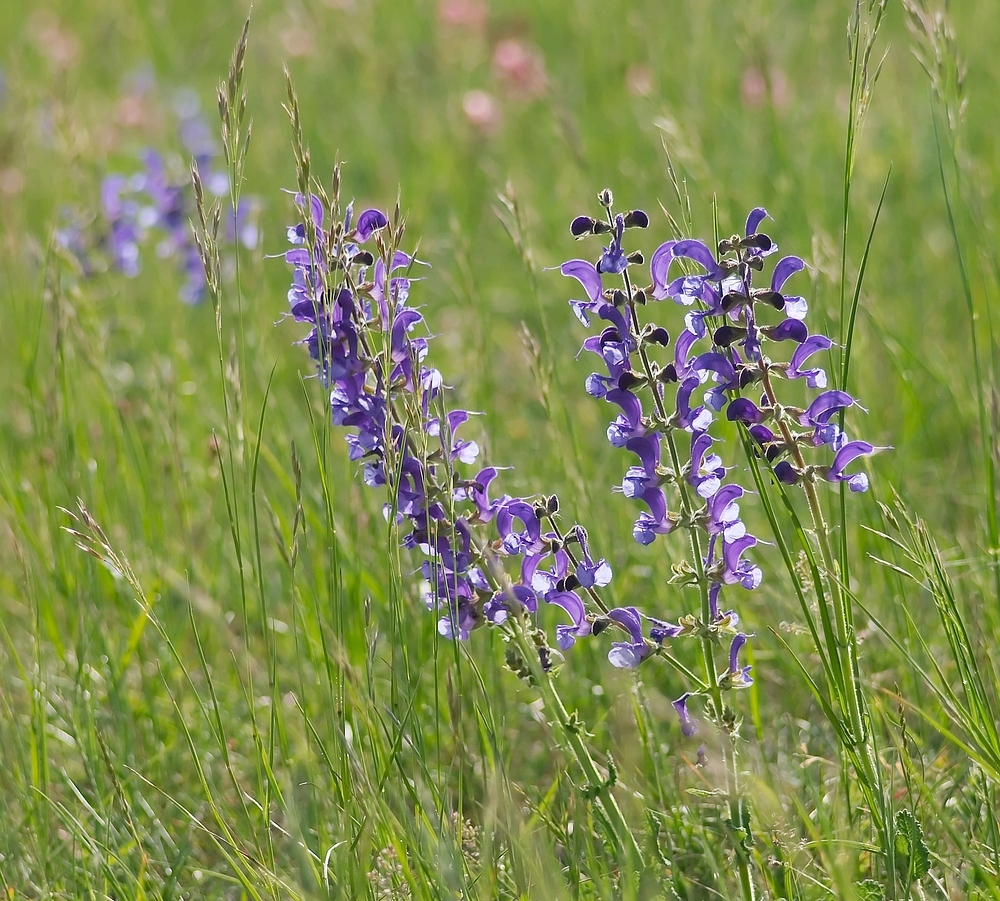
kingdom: Plantae
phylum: Tracheophyta
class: Magnoliopsida
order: Lamiales
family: Lamiaceae
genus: Salvia
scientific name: Salvia pratensis
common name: Meadow sage
